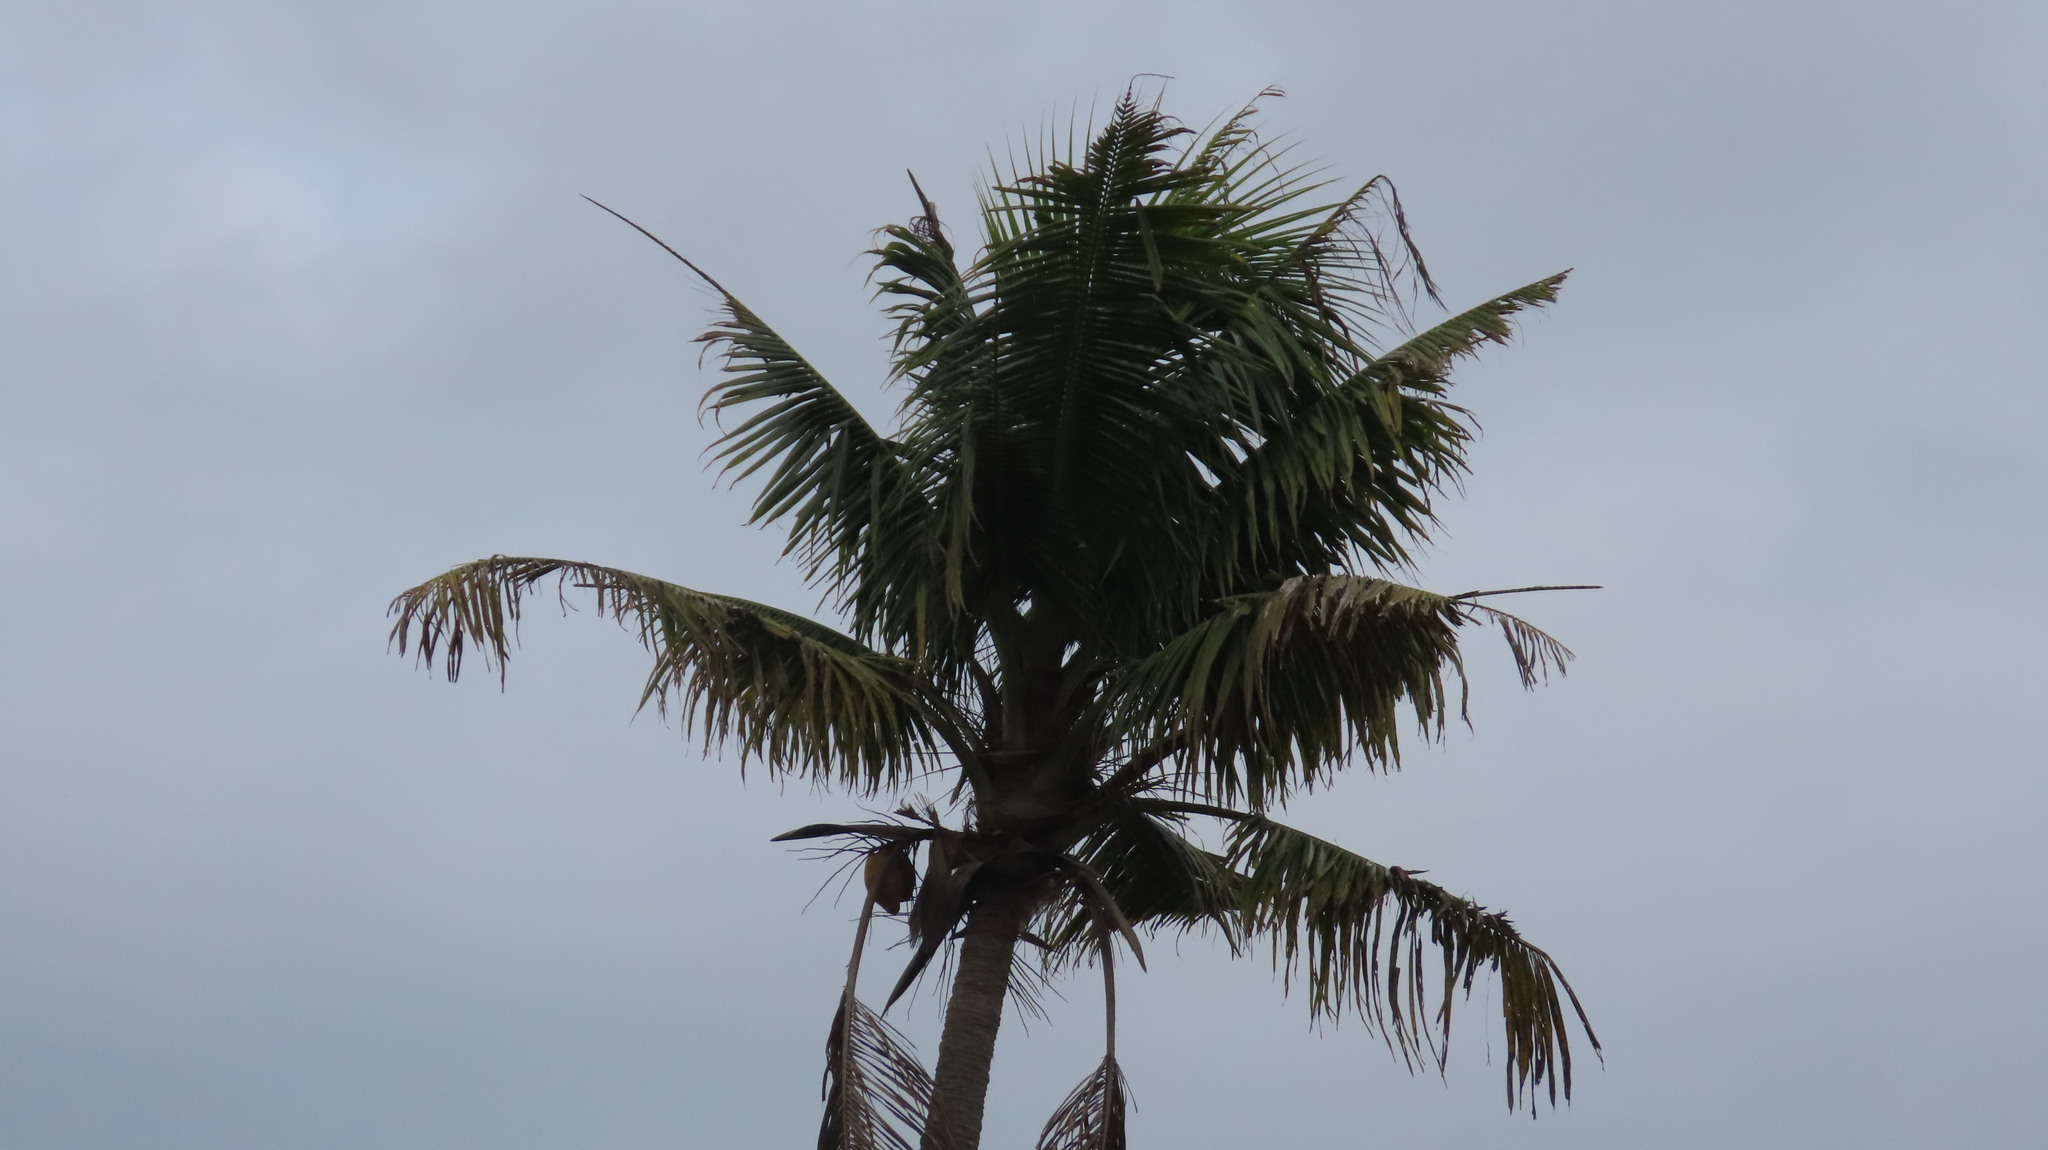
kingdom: Plantae
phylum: Tracheophyta
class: Liliopsida
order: Arecales
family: Arecaceae
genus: Cocos
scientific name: Cocos nucifera
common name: Coconut palm
